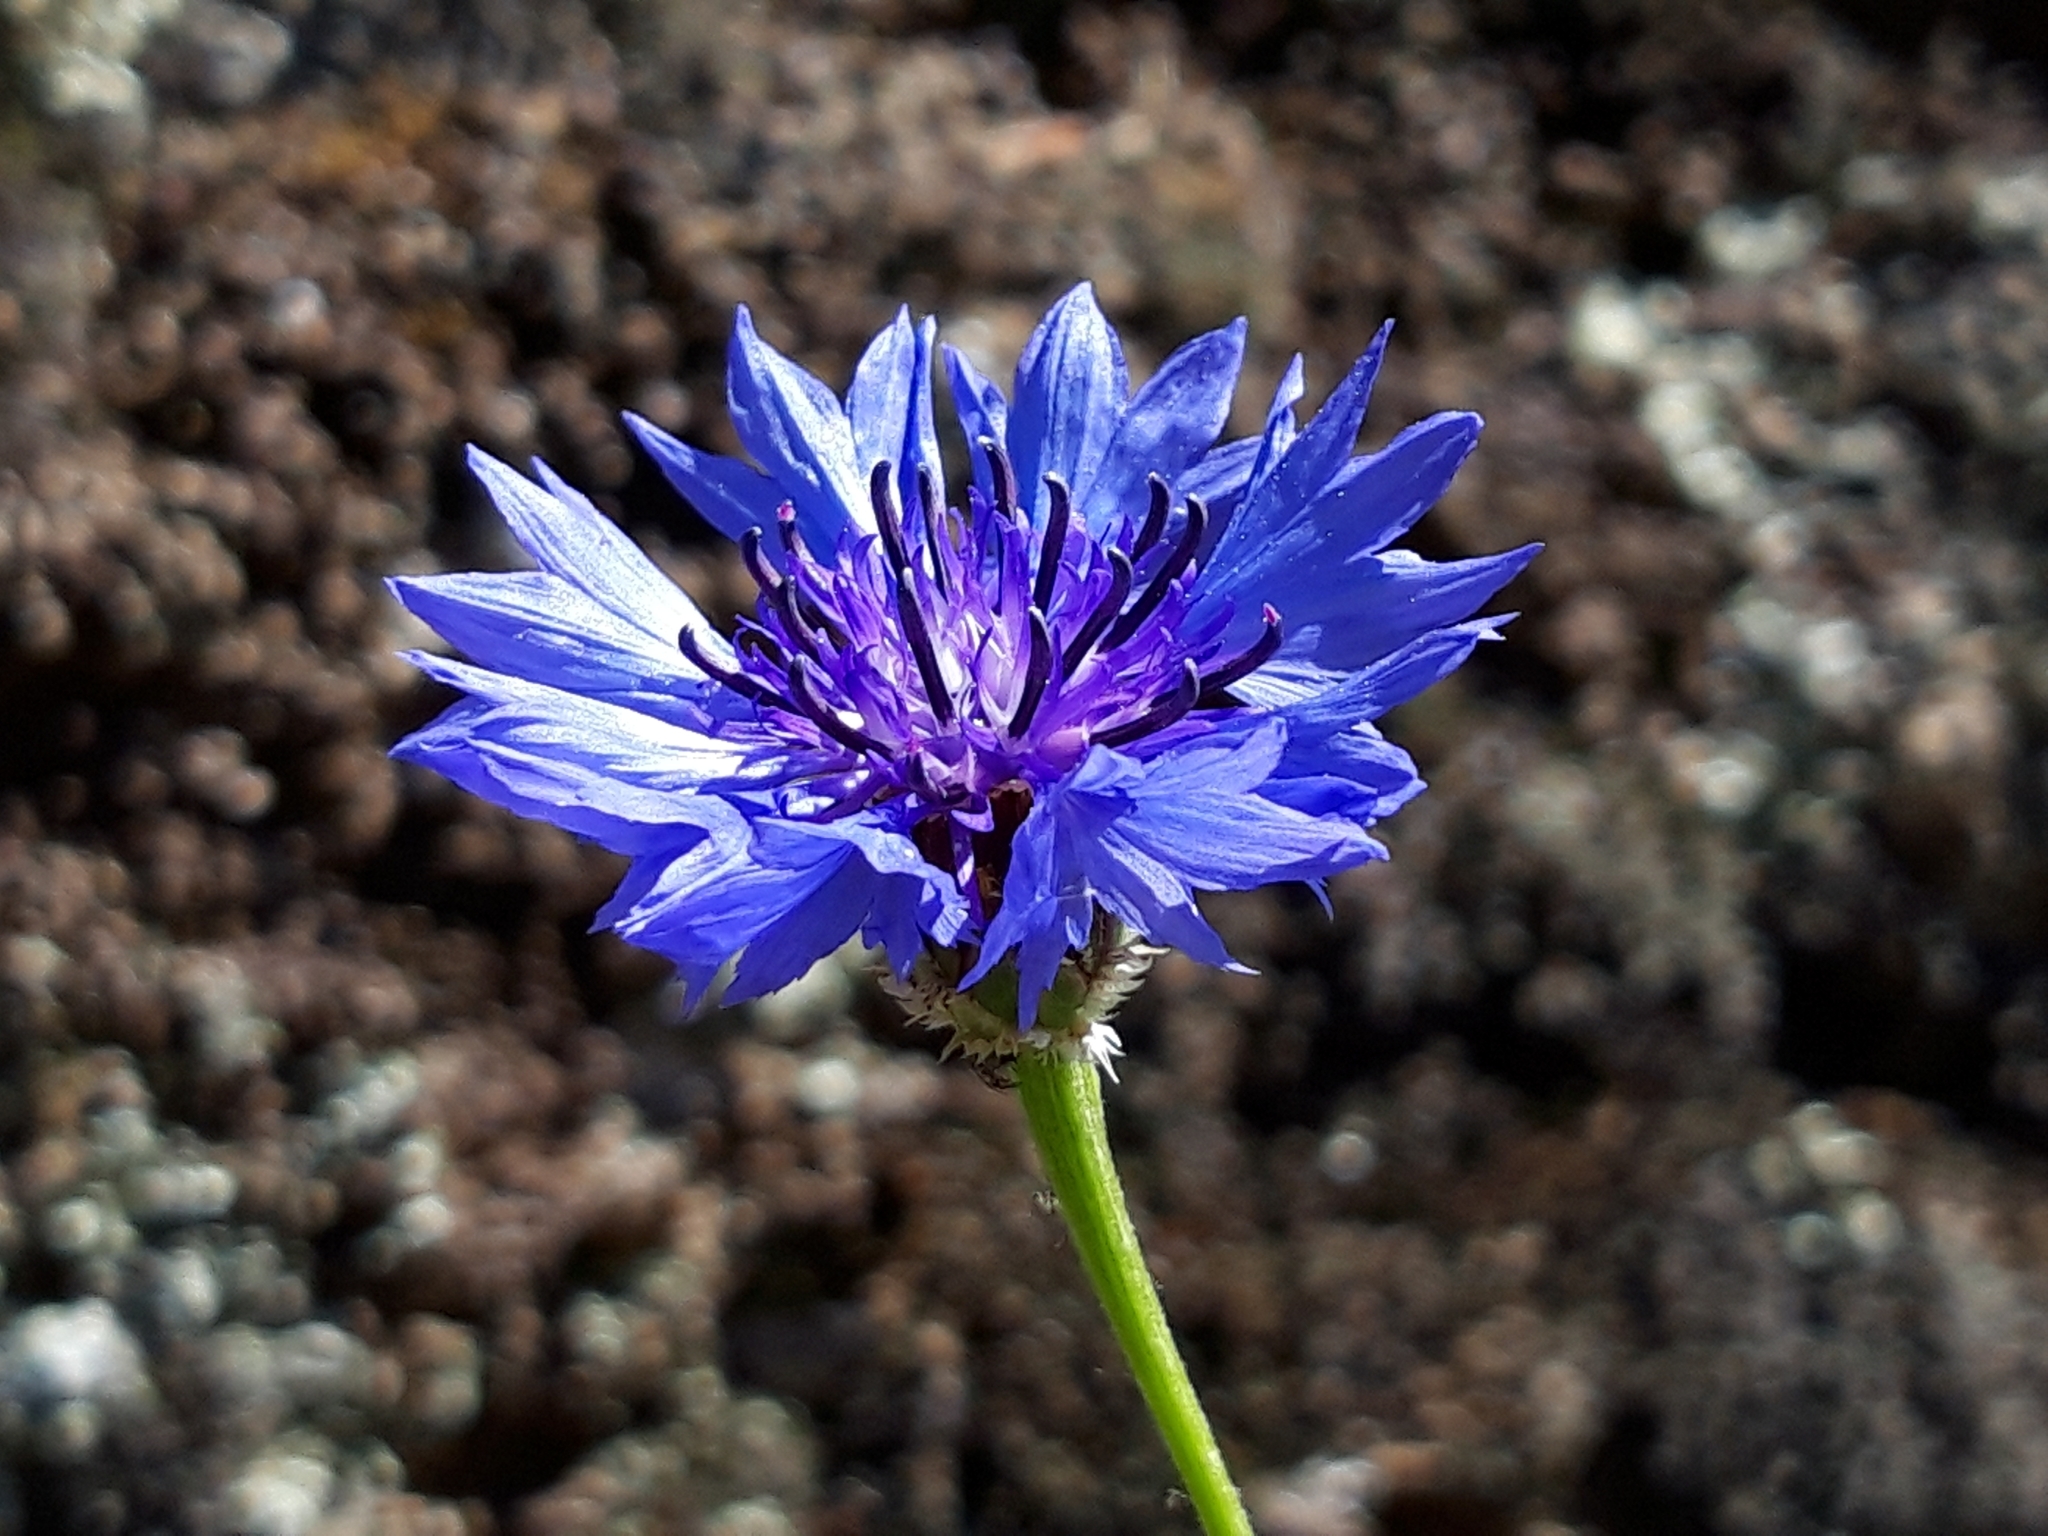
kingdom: Plantae
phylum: Tracheophyta
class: Magnoliopsida
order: Asterales
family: Asteraceae
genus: Centaurea
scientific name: Centaurea cyanus
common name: Cornflower
